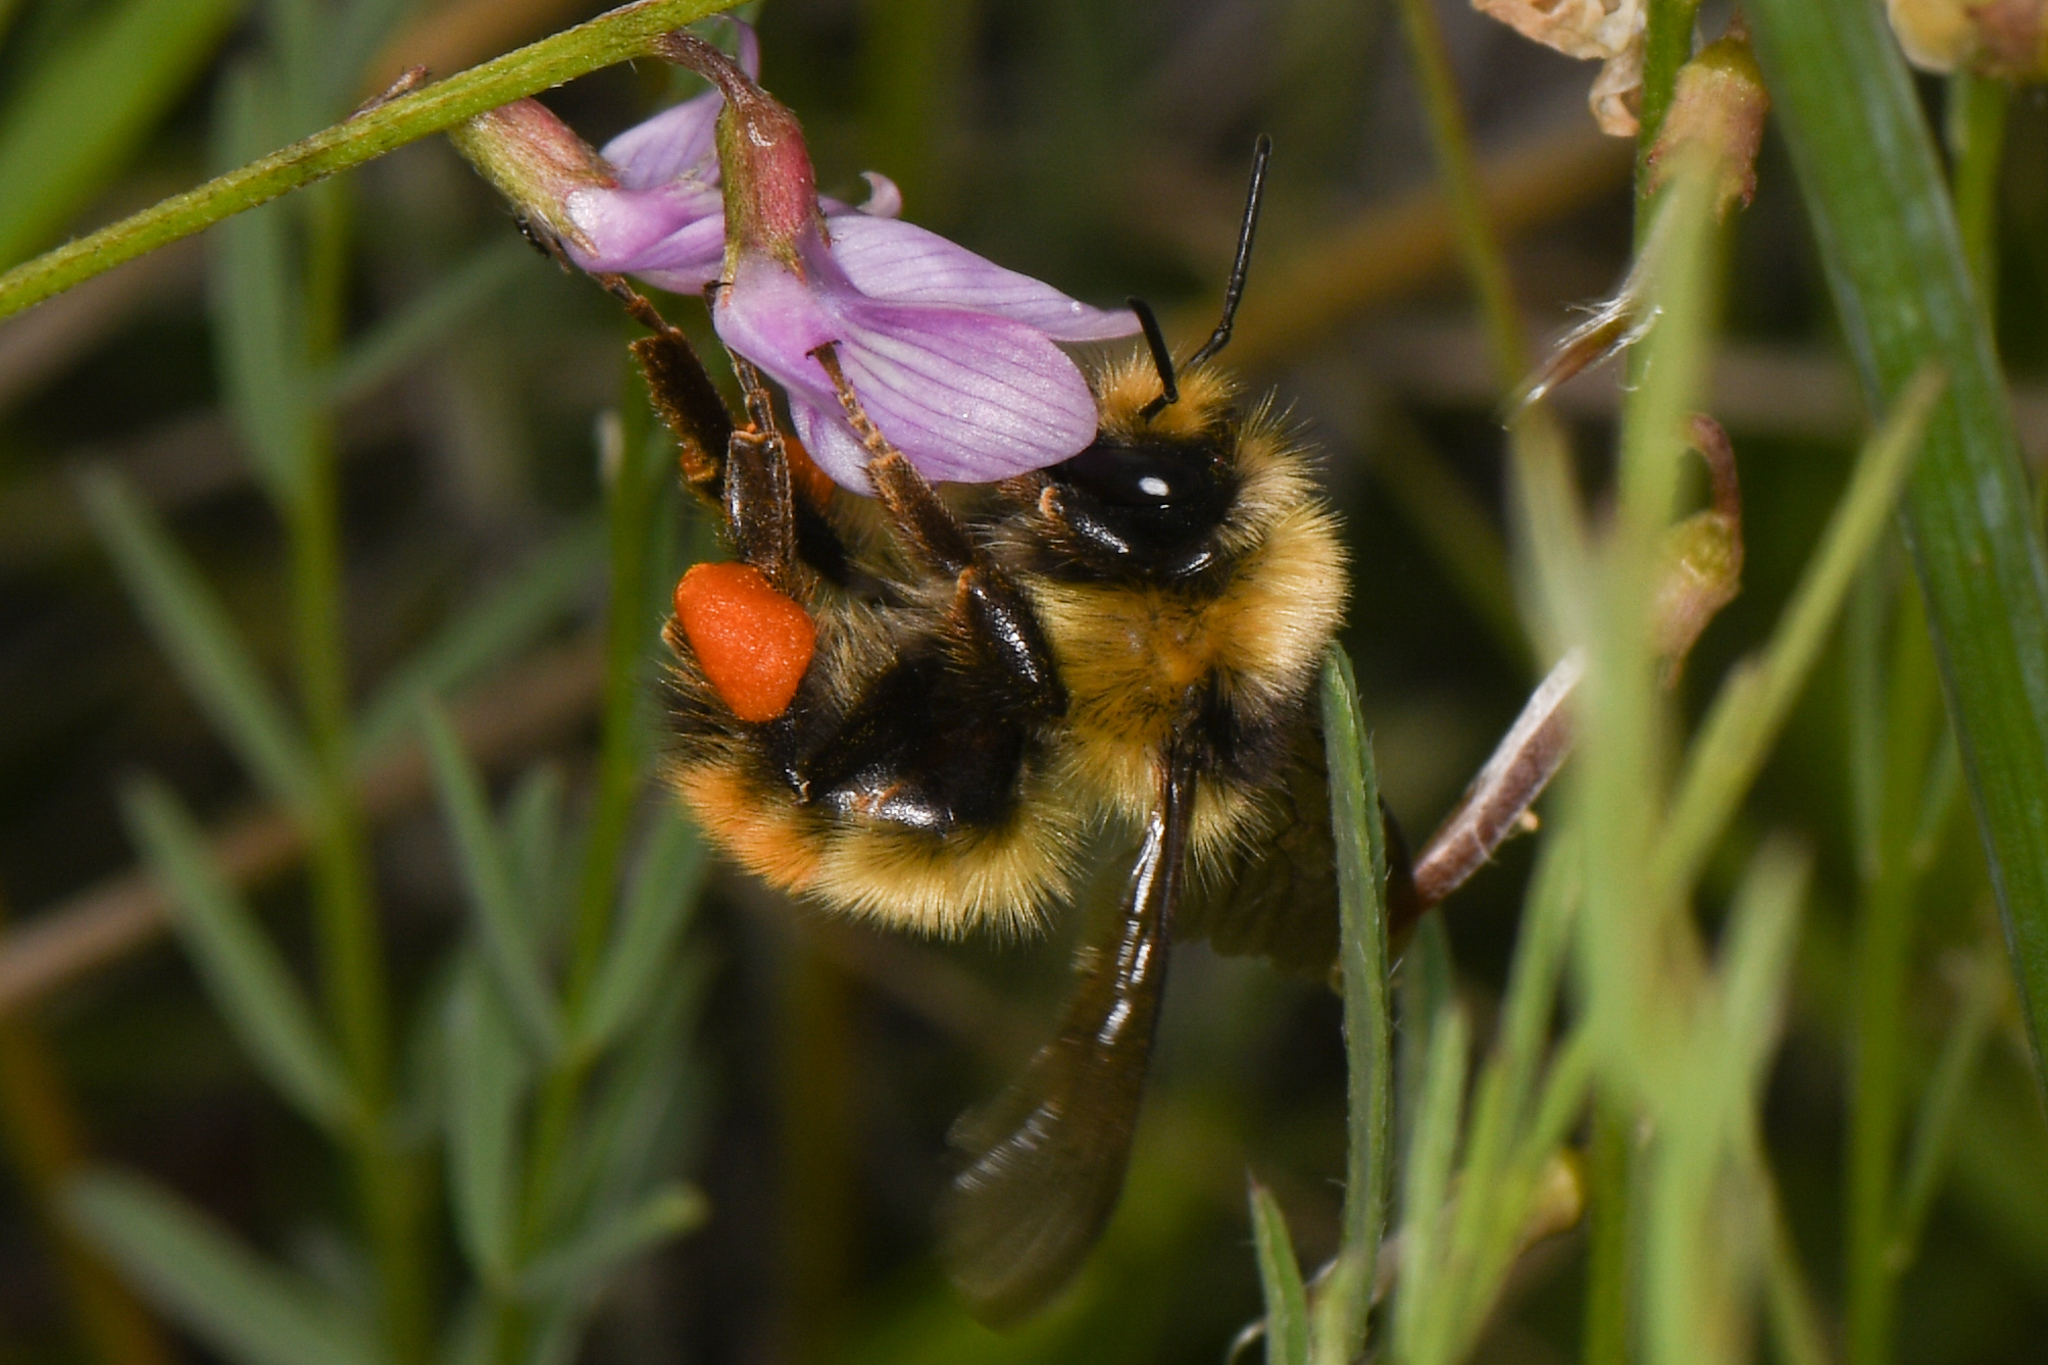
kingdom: Animalia
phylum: Arthropoda
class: Insecta
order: Hymenoptera
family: Apidae
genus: Bombus
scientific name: Bombus centralis
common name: Central bumble bee
